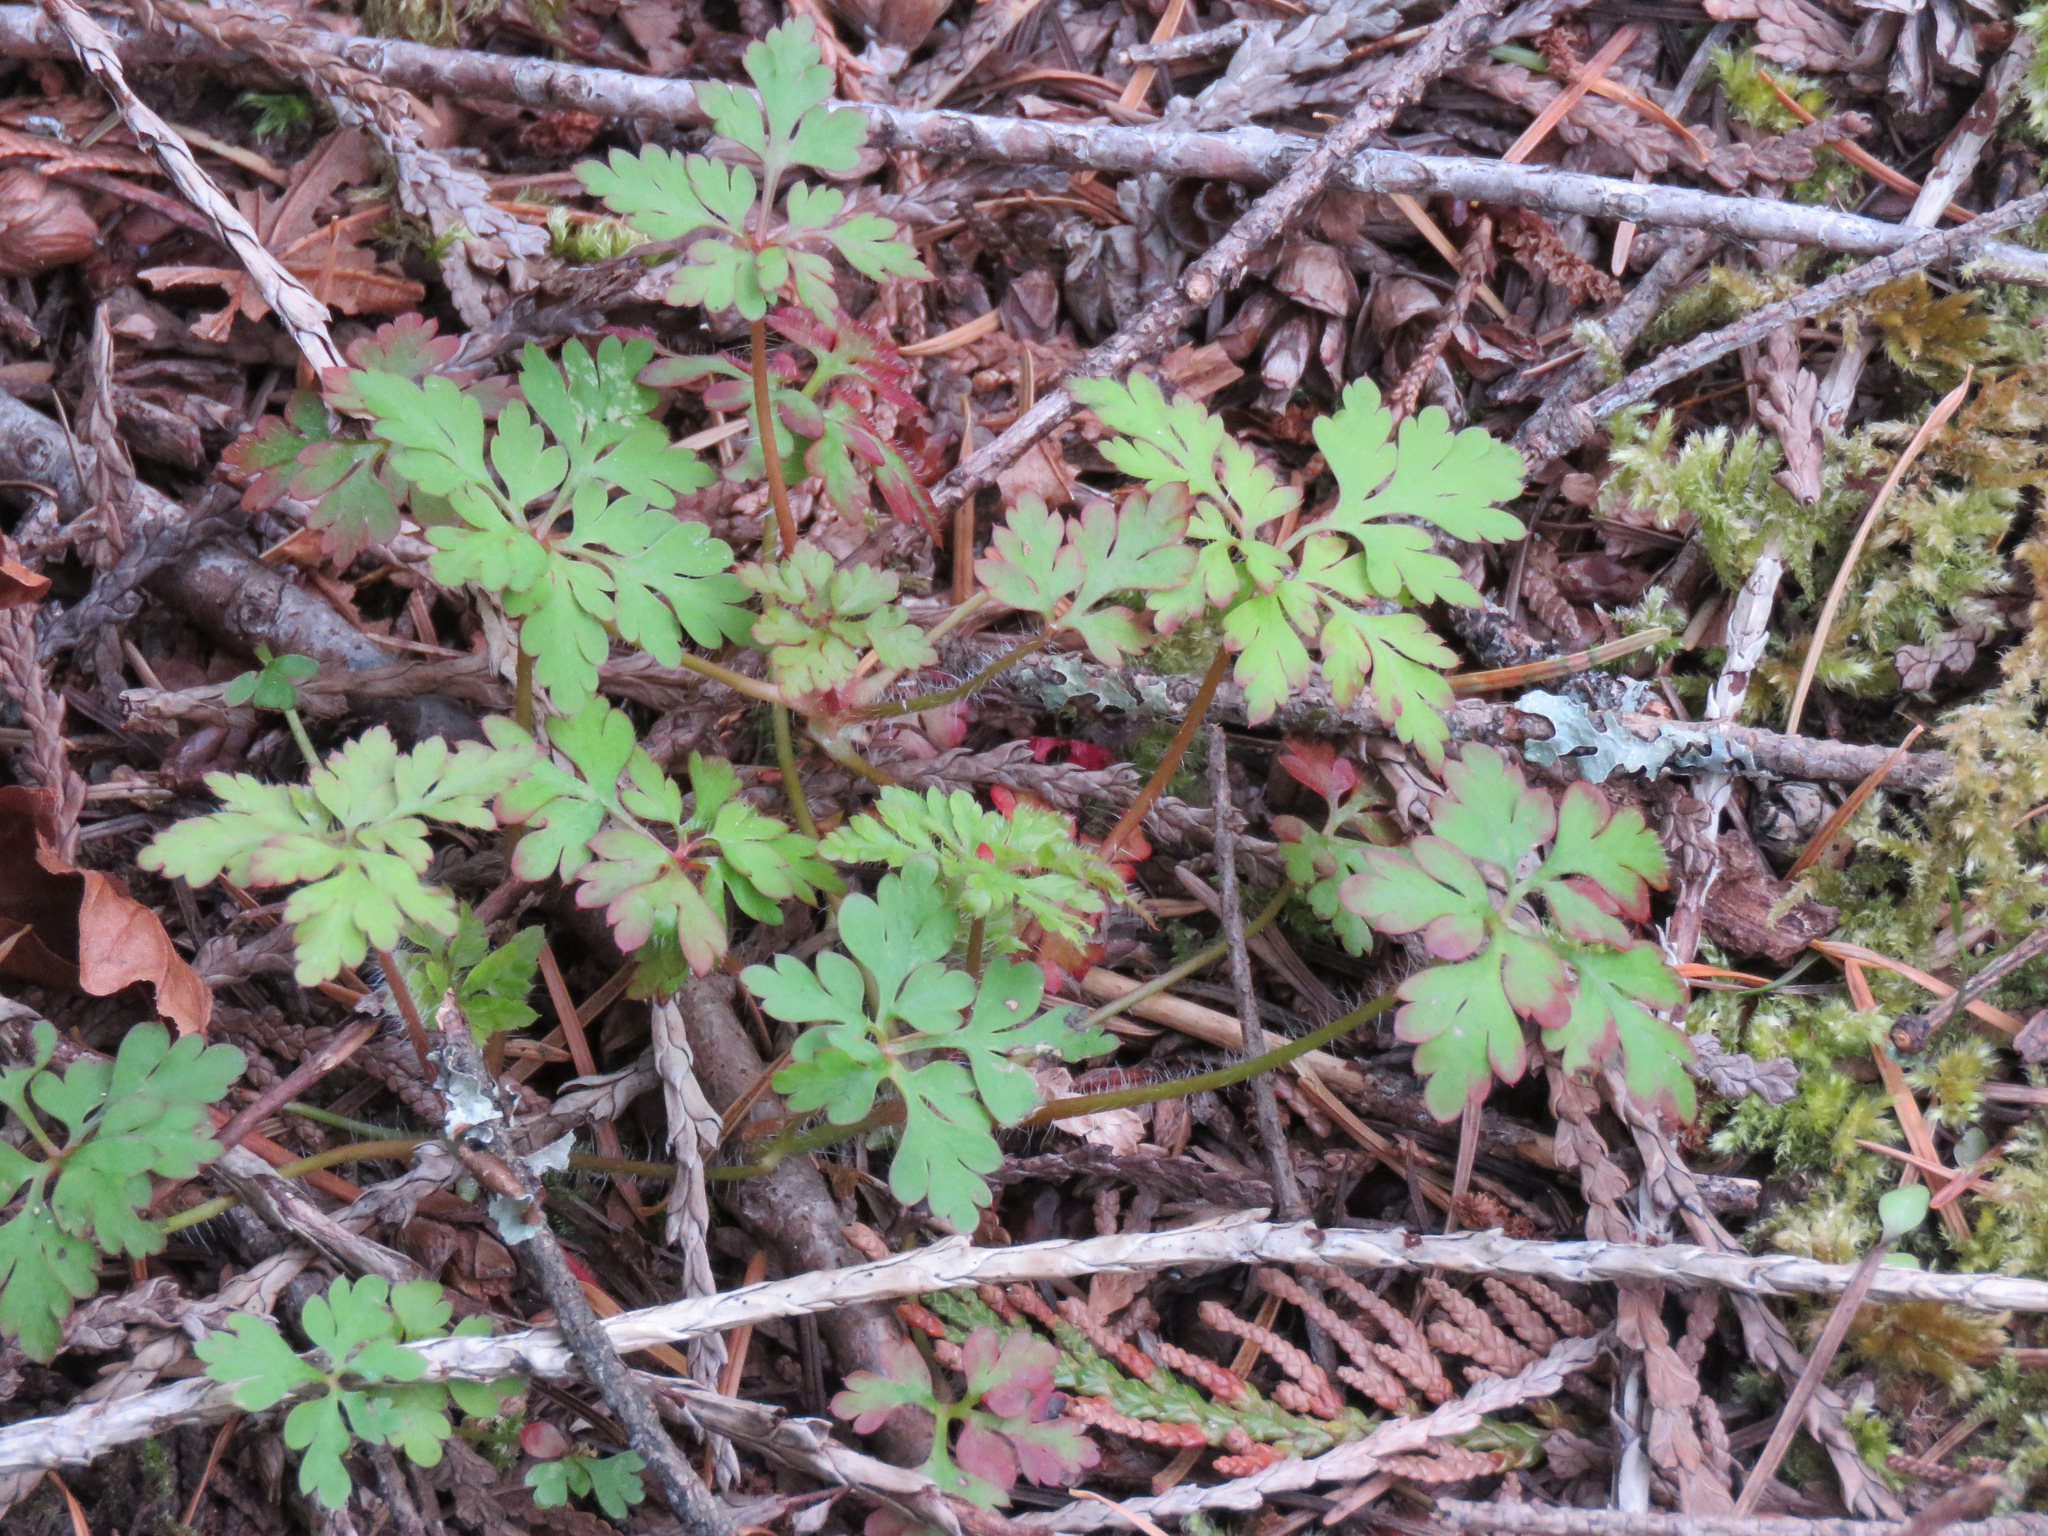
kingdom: Plantae
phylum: Tracheophyta
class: Magnoliopsida
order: Geraniales
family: Geraniaceae
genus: Geranium
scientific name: Geranium robertianum
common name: Herb-robert
